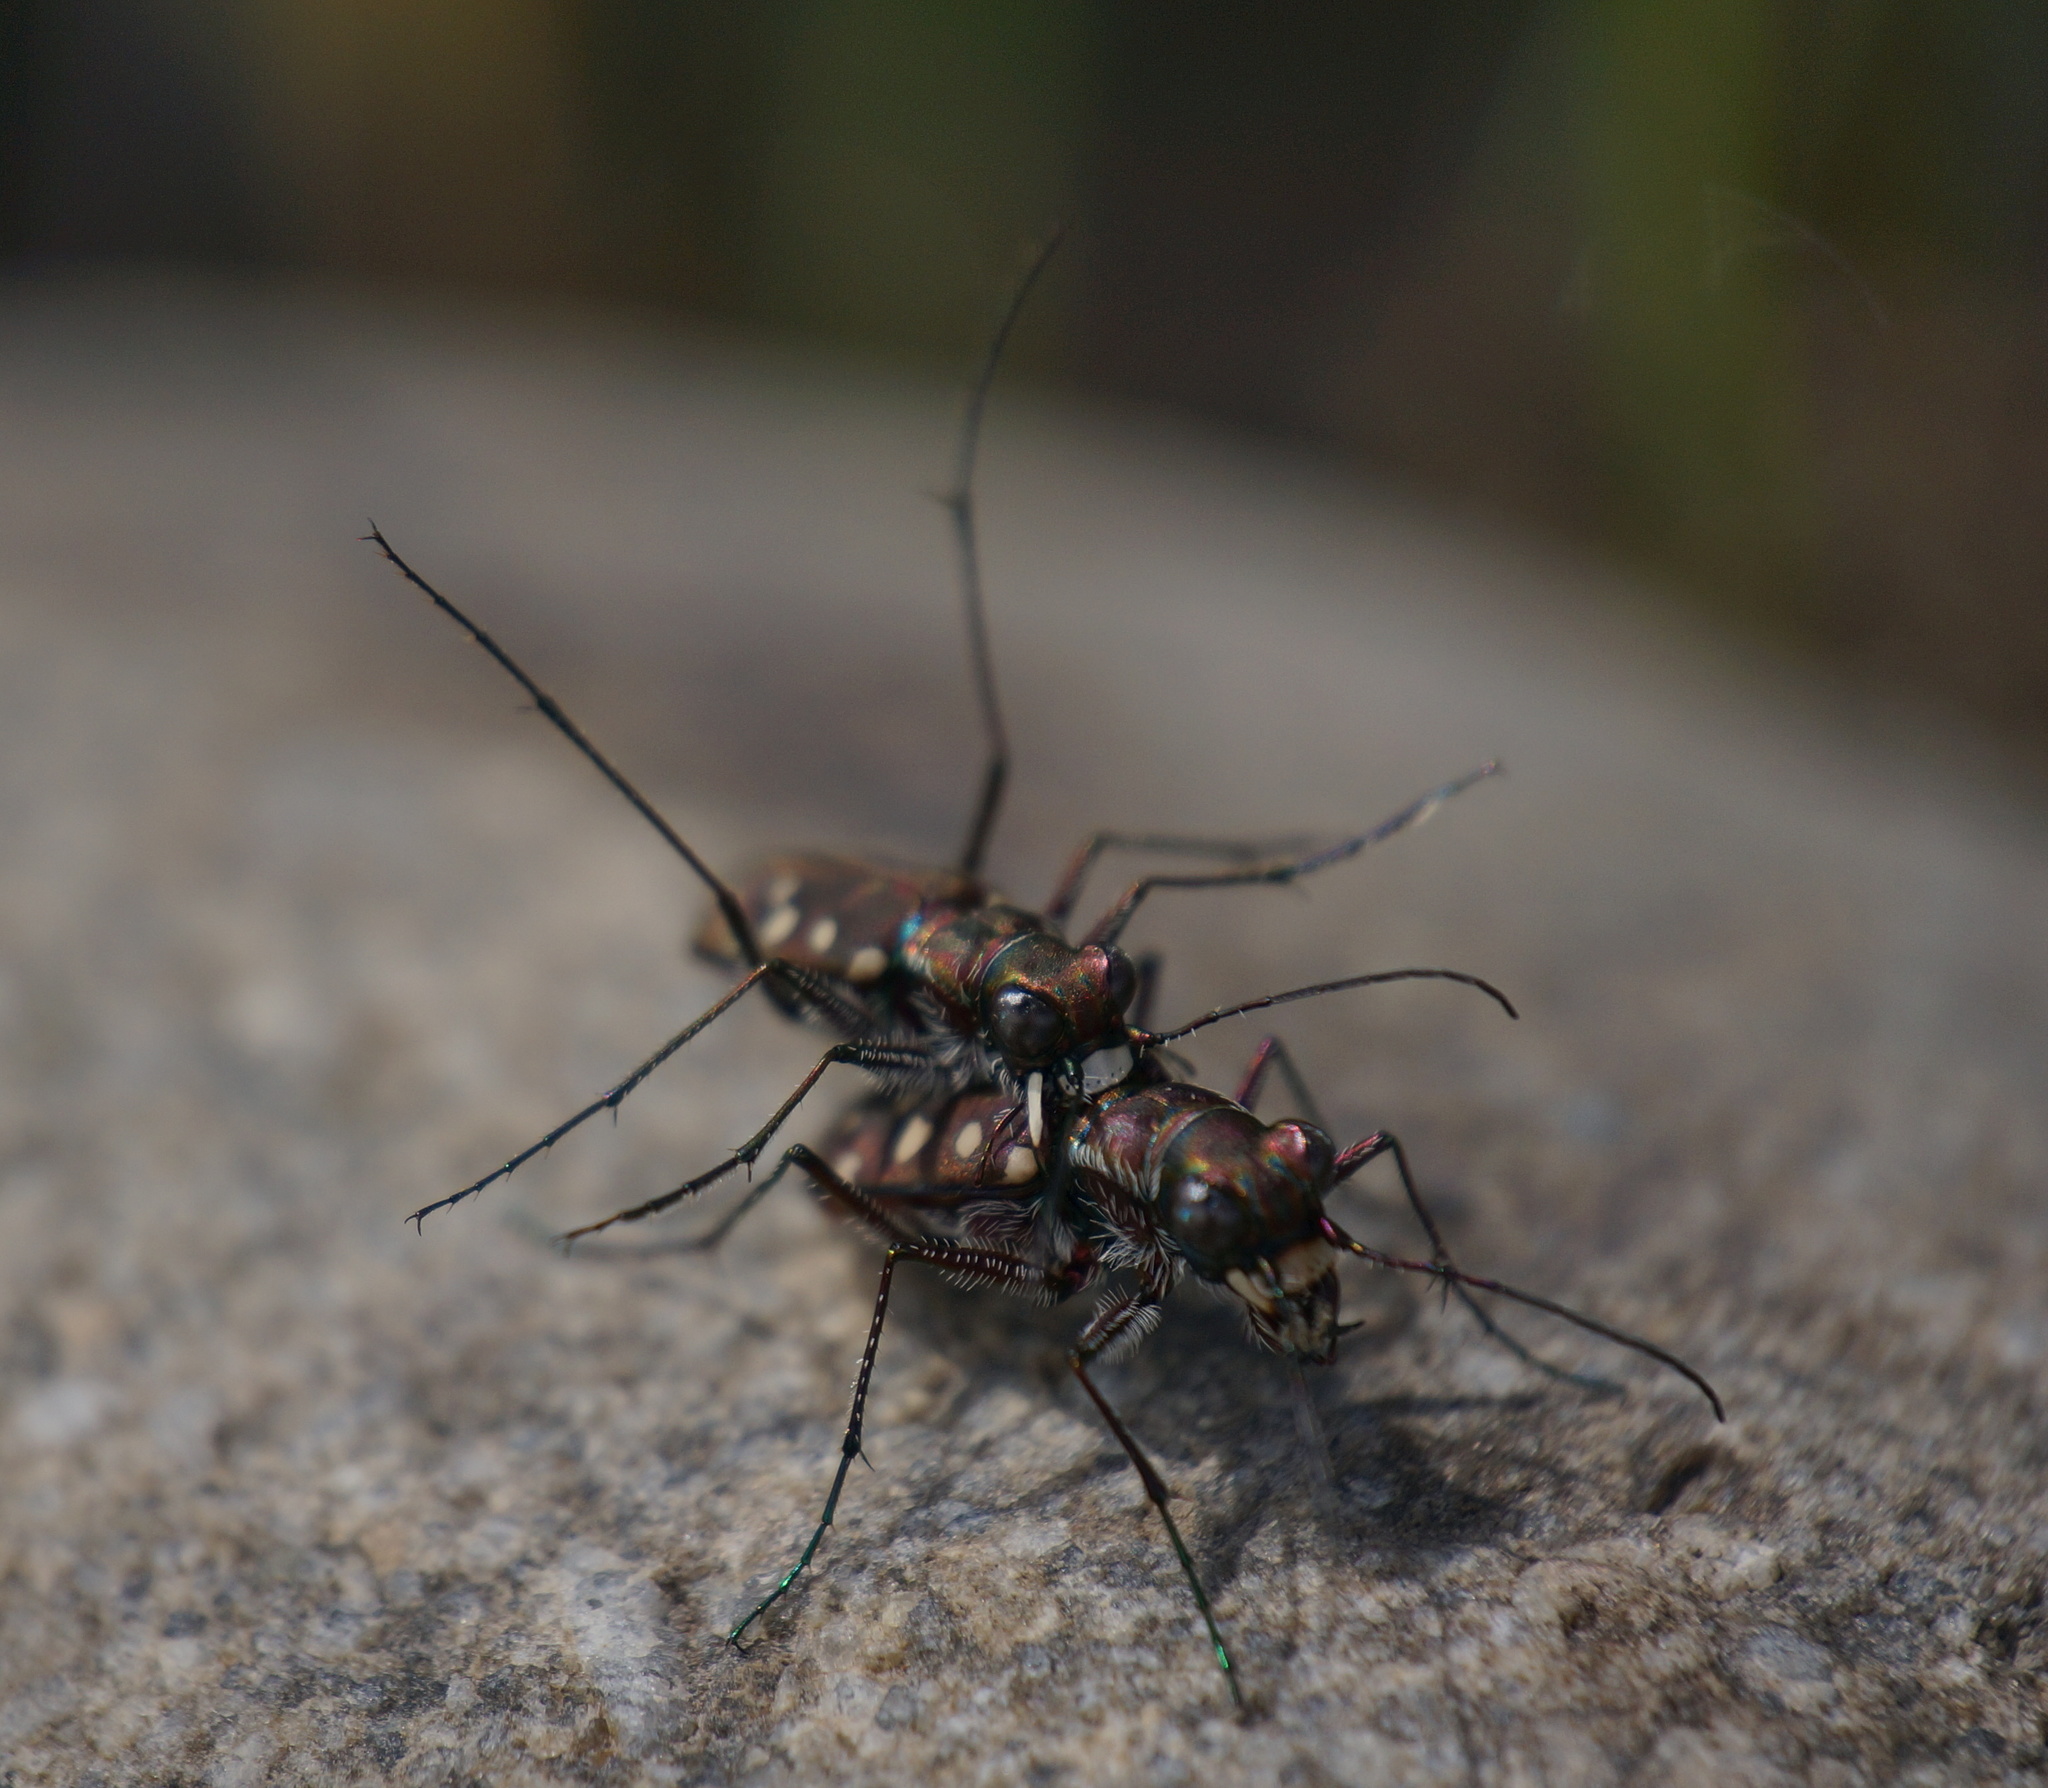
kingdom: Animalia
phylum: Arthropoda
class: Insecta
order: Coleoptera
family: Carabidae
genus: Cicindela
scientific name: Cicindela sedecimpunctata
